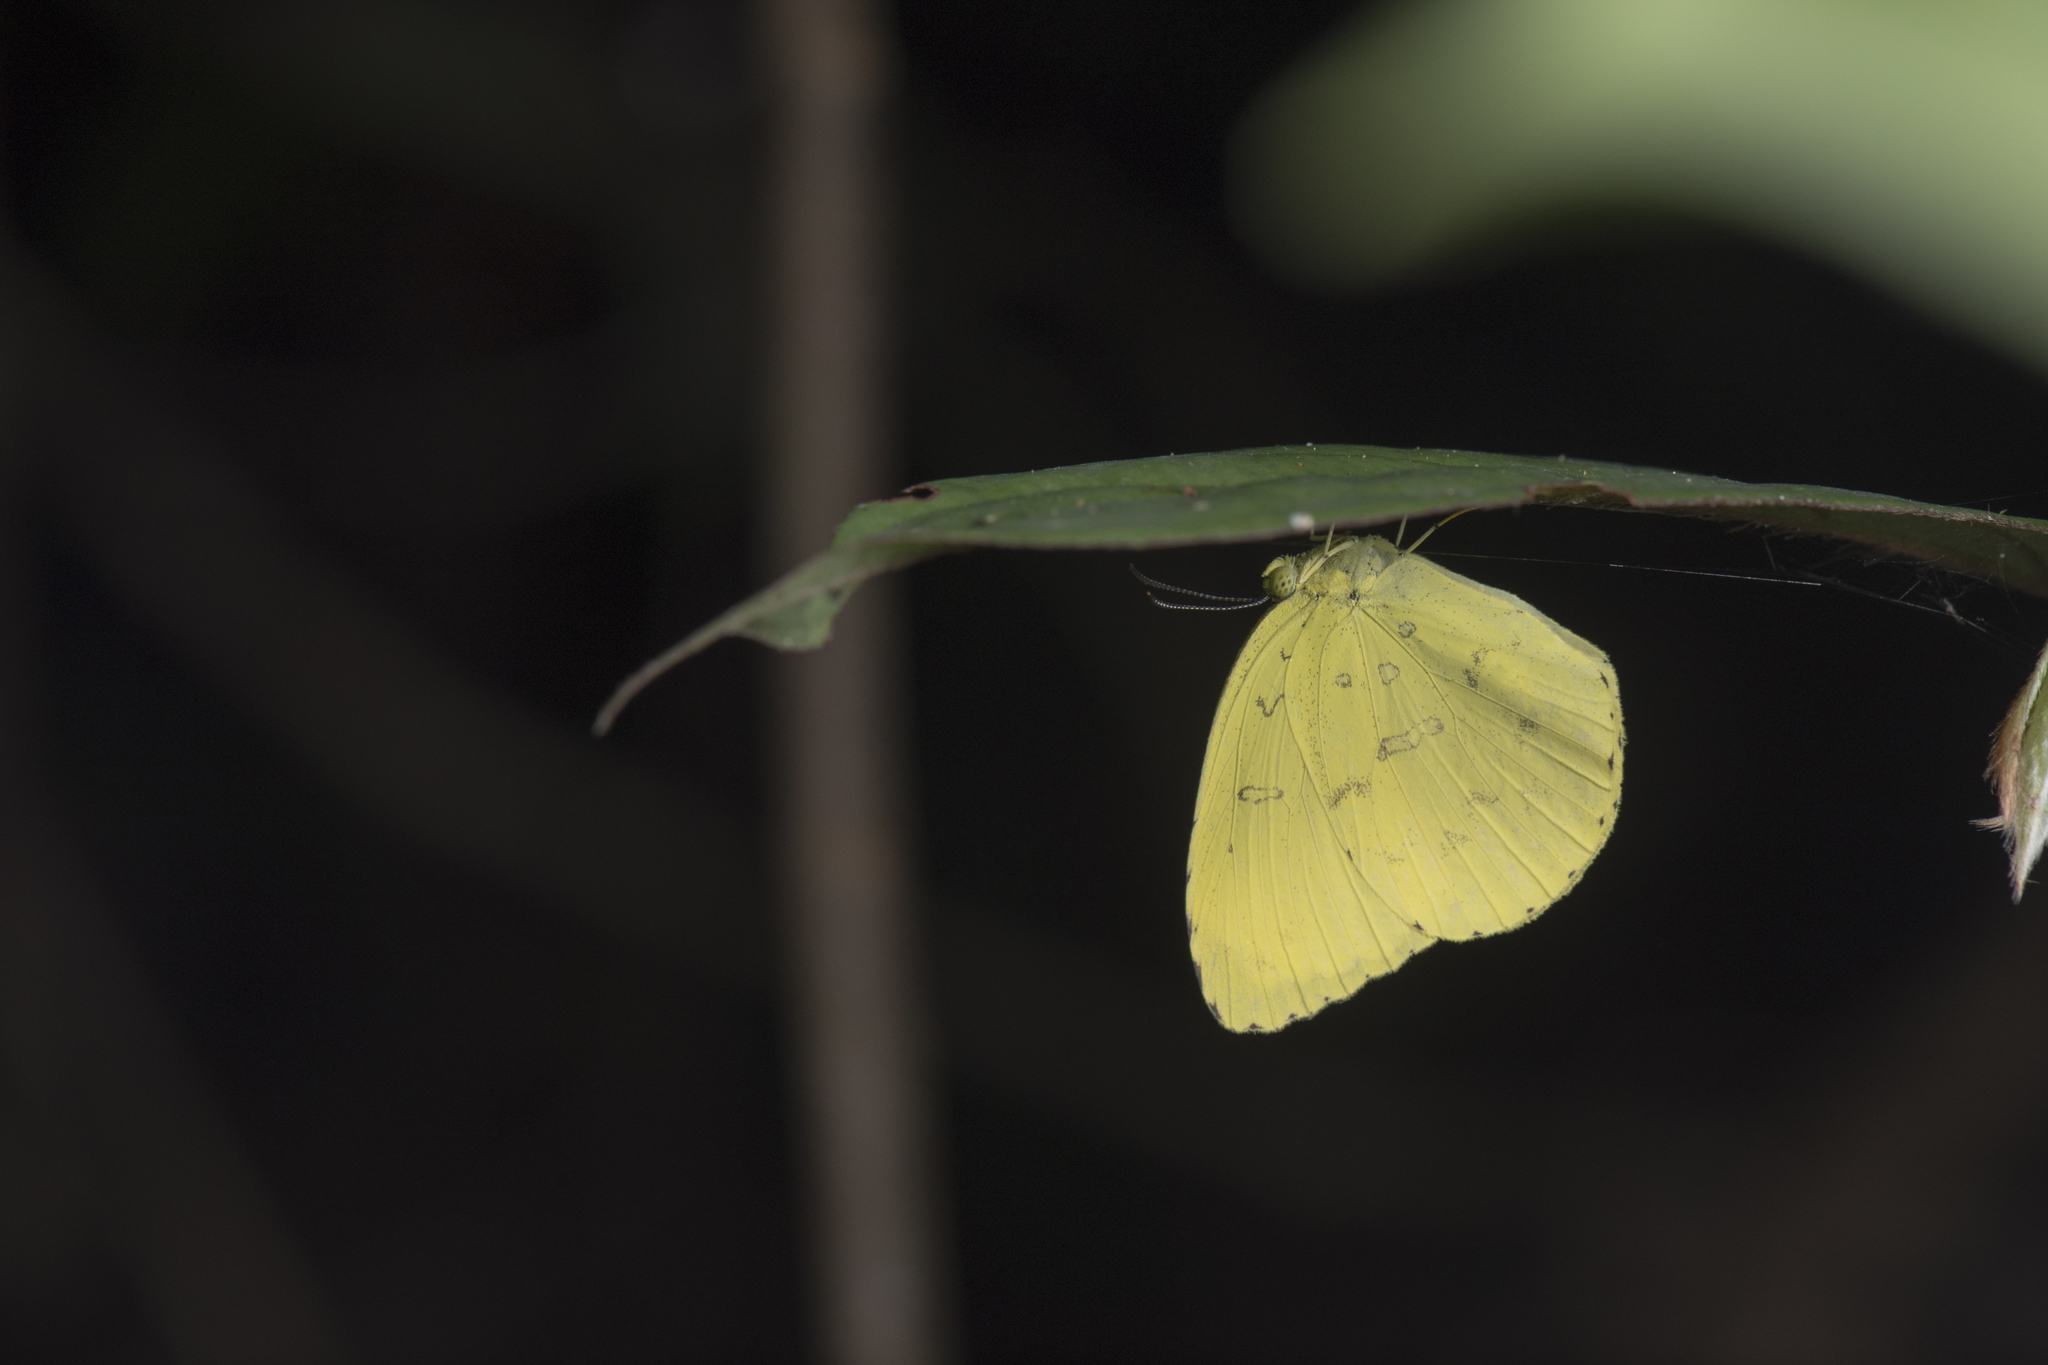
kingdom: Animalia
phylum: Arthropoda
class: Insecta
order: Lepidoptera
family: Pieridae
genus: Eurema
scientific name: Eurema blanda
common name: Three-spot grass yellow
